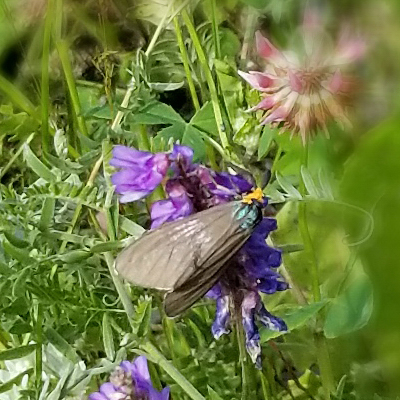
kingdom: Animalia
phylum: Arthropoda
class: Insecta
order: Lepidoptera
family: Erebidae
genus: Ctenucha
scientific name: Ctenucha virginica
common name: Virginia ctenucha moth
